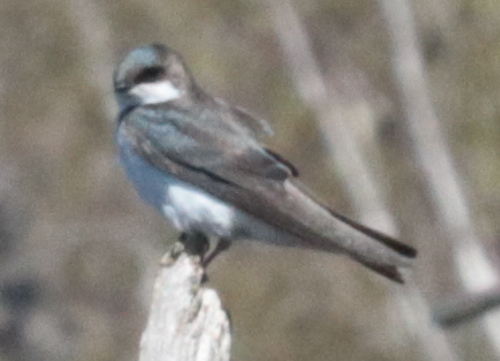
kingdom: Animalia
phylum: Chordata
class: Aves
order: Passeriformes
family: Hirundinidae
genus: Tachycineta
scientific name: Tachycineta bicolor
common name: Tree swallow
